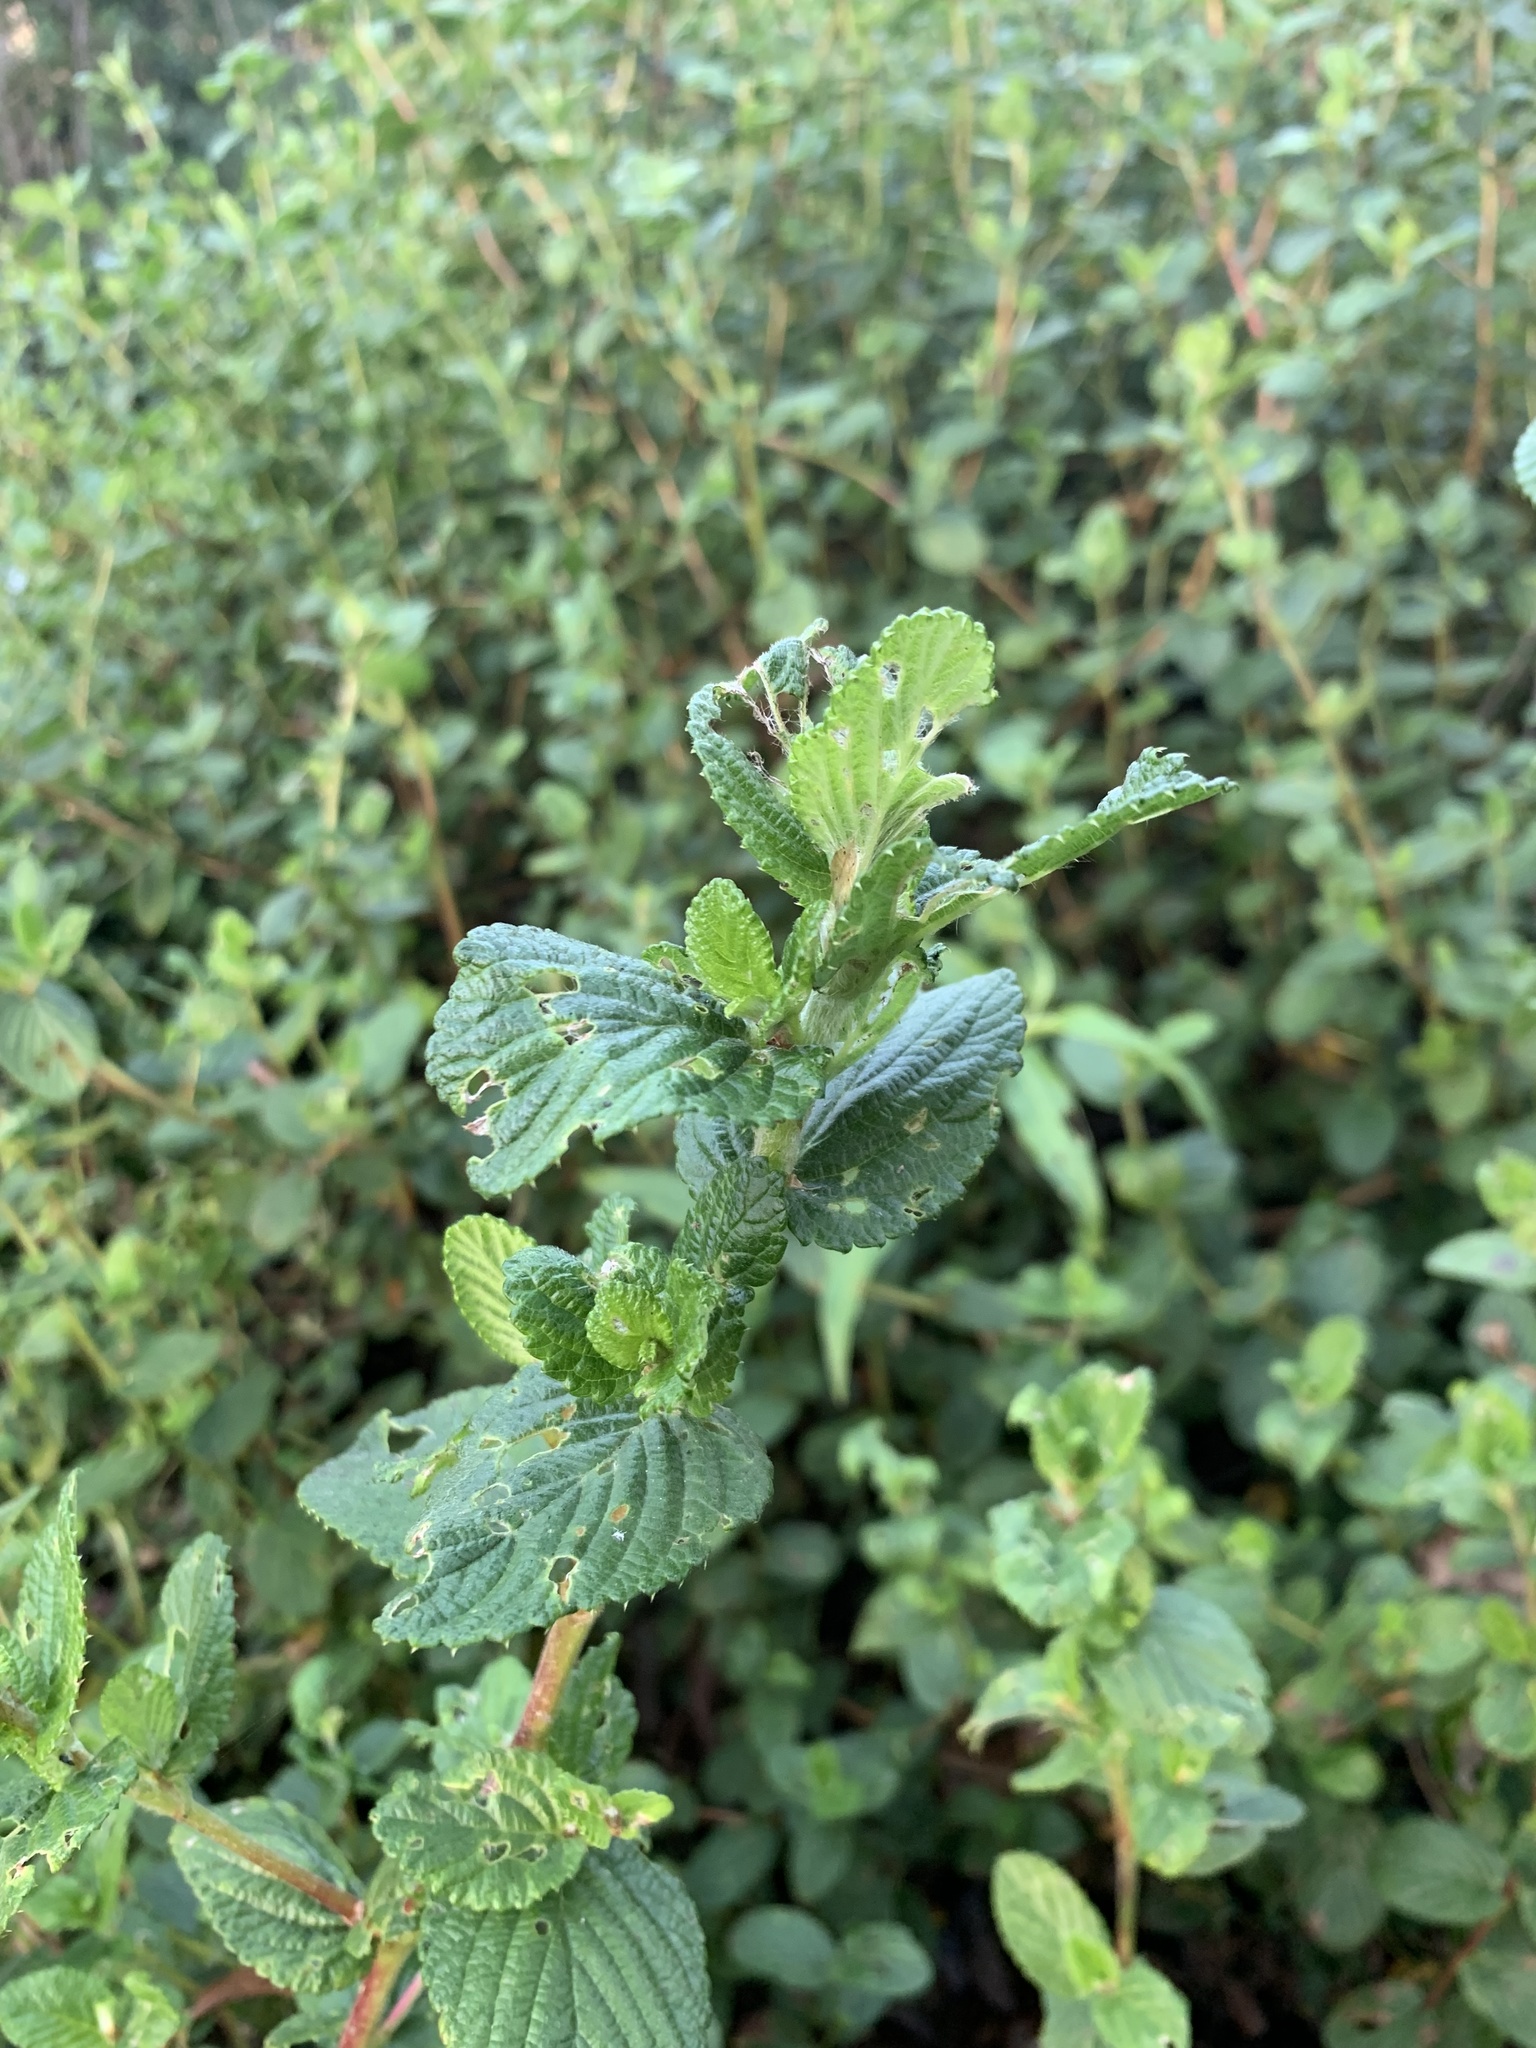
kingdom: Plantae
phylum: Tracheophyta
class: Magnoliopsida
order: Rosales
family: Rosaceae
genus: Cliffortia
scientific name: Cliffortia odorata
